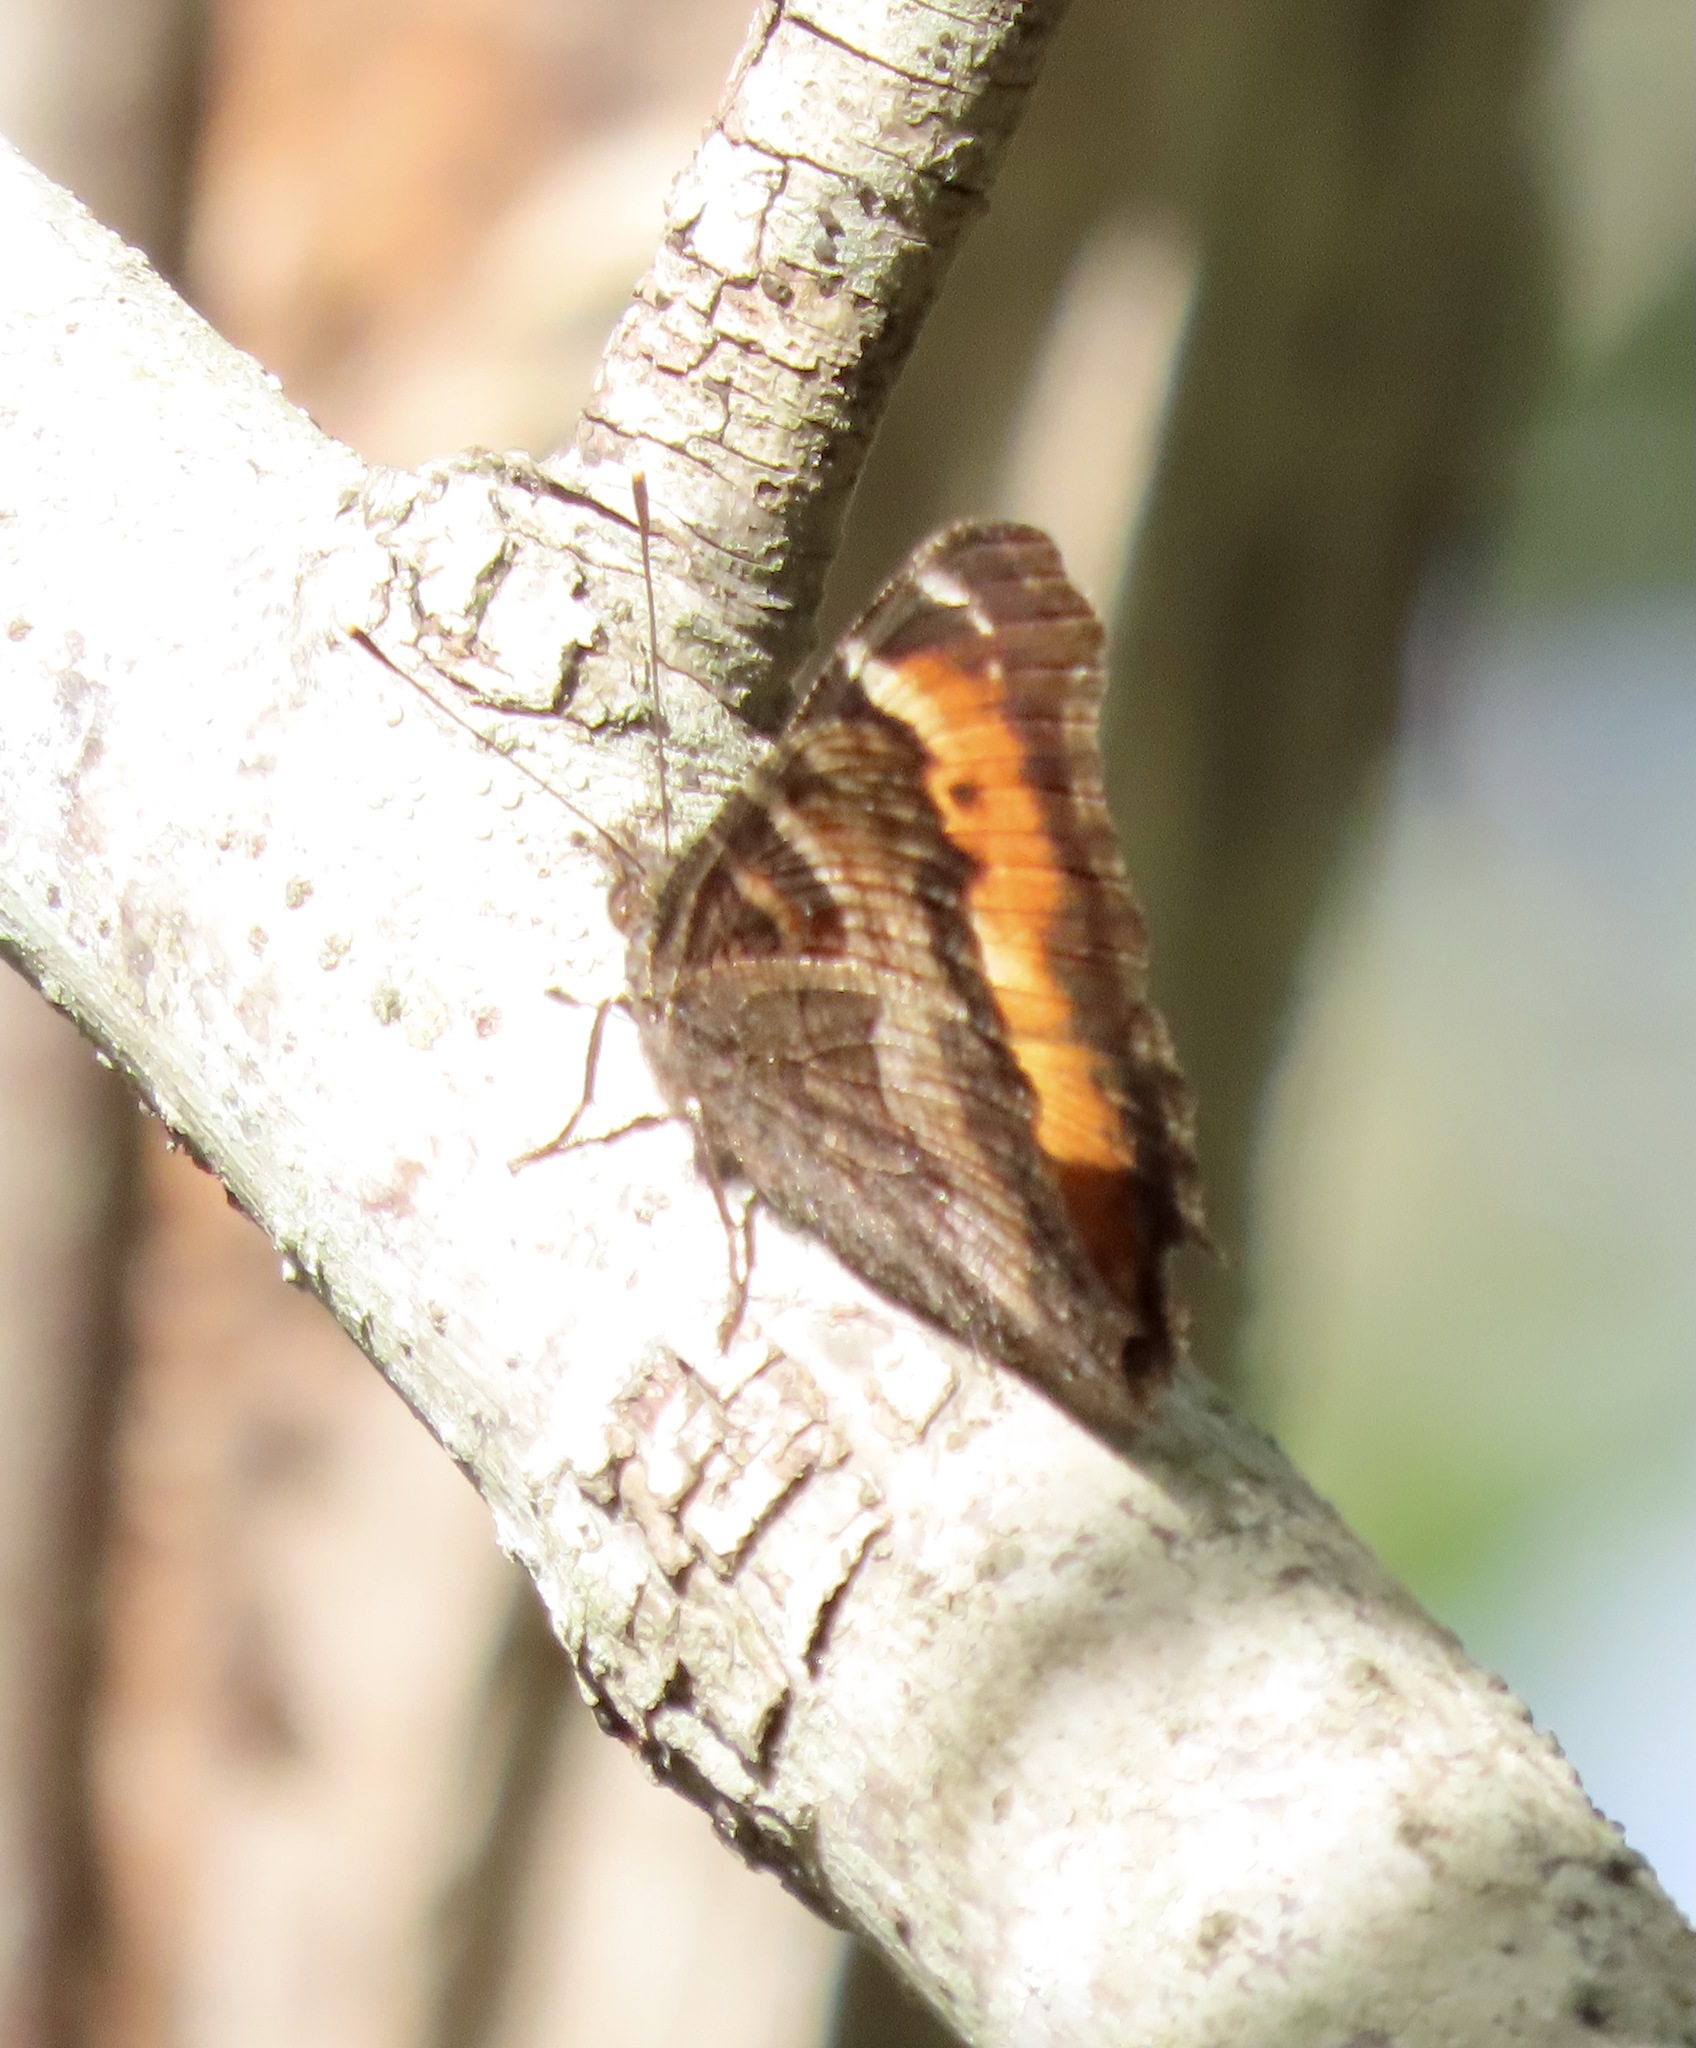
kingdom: Animalia
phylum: Arthropoda
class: Insecta
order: Lepidoptera
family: Nymphalidae
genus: Nymphalis
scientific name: Nymphalis californica
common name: California tortoiseshell
